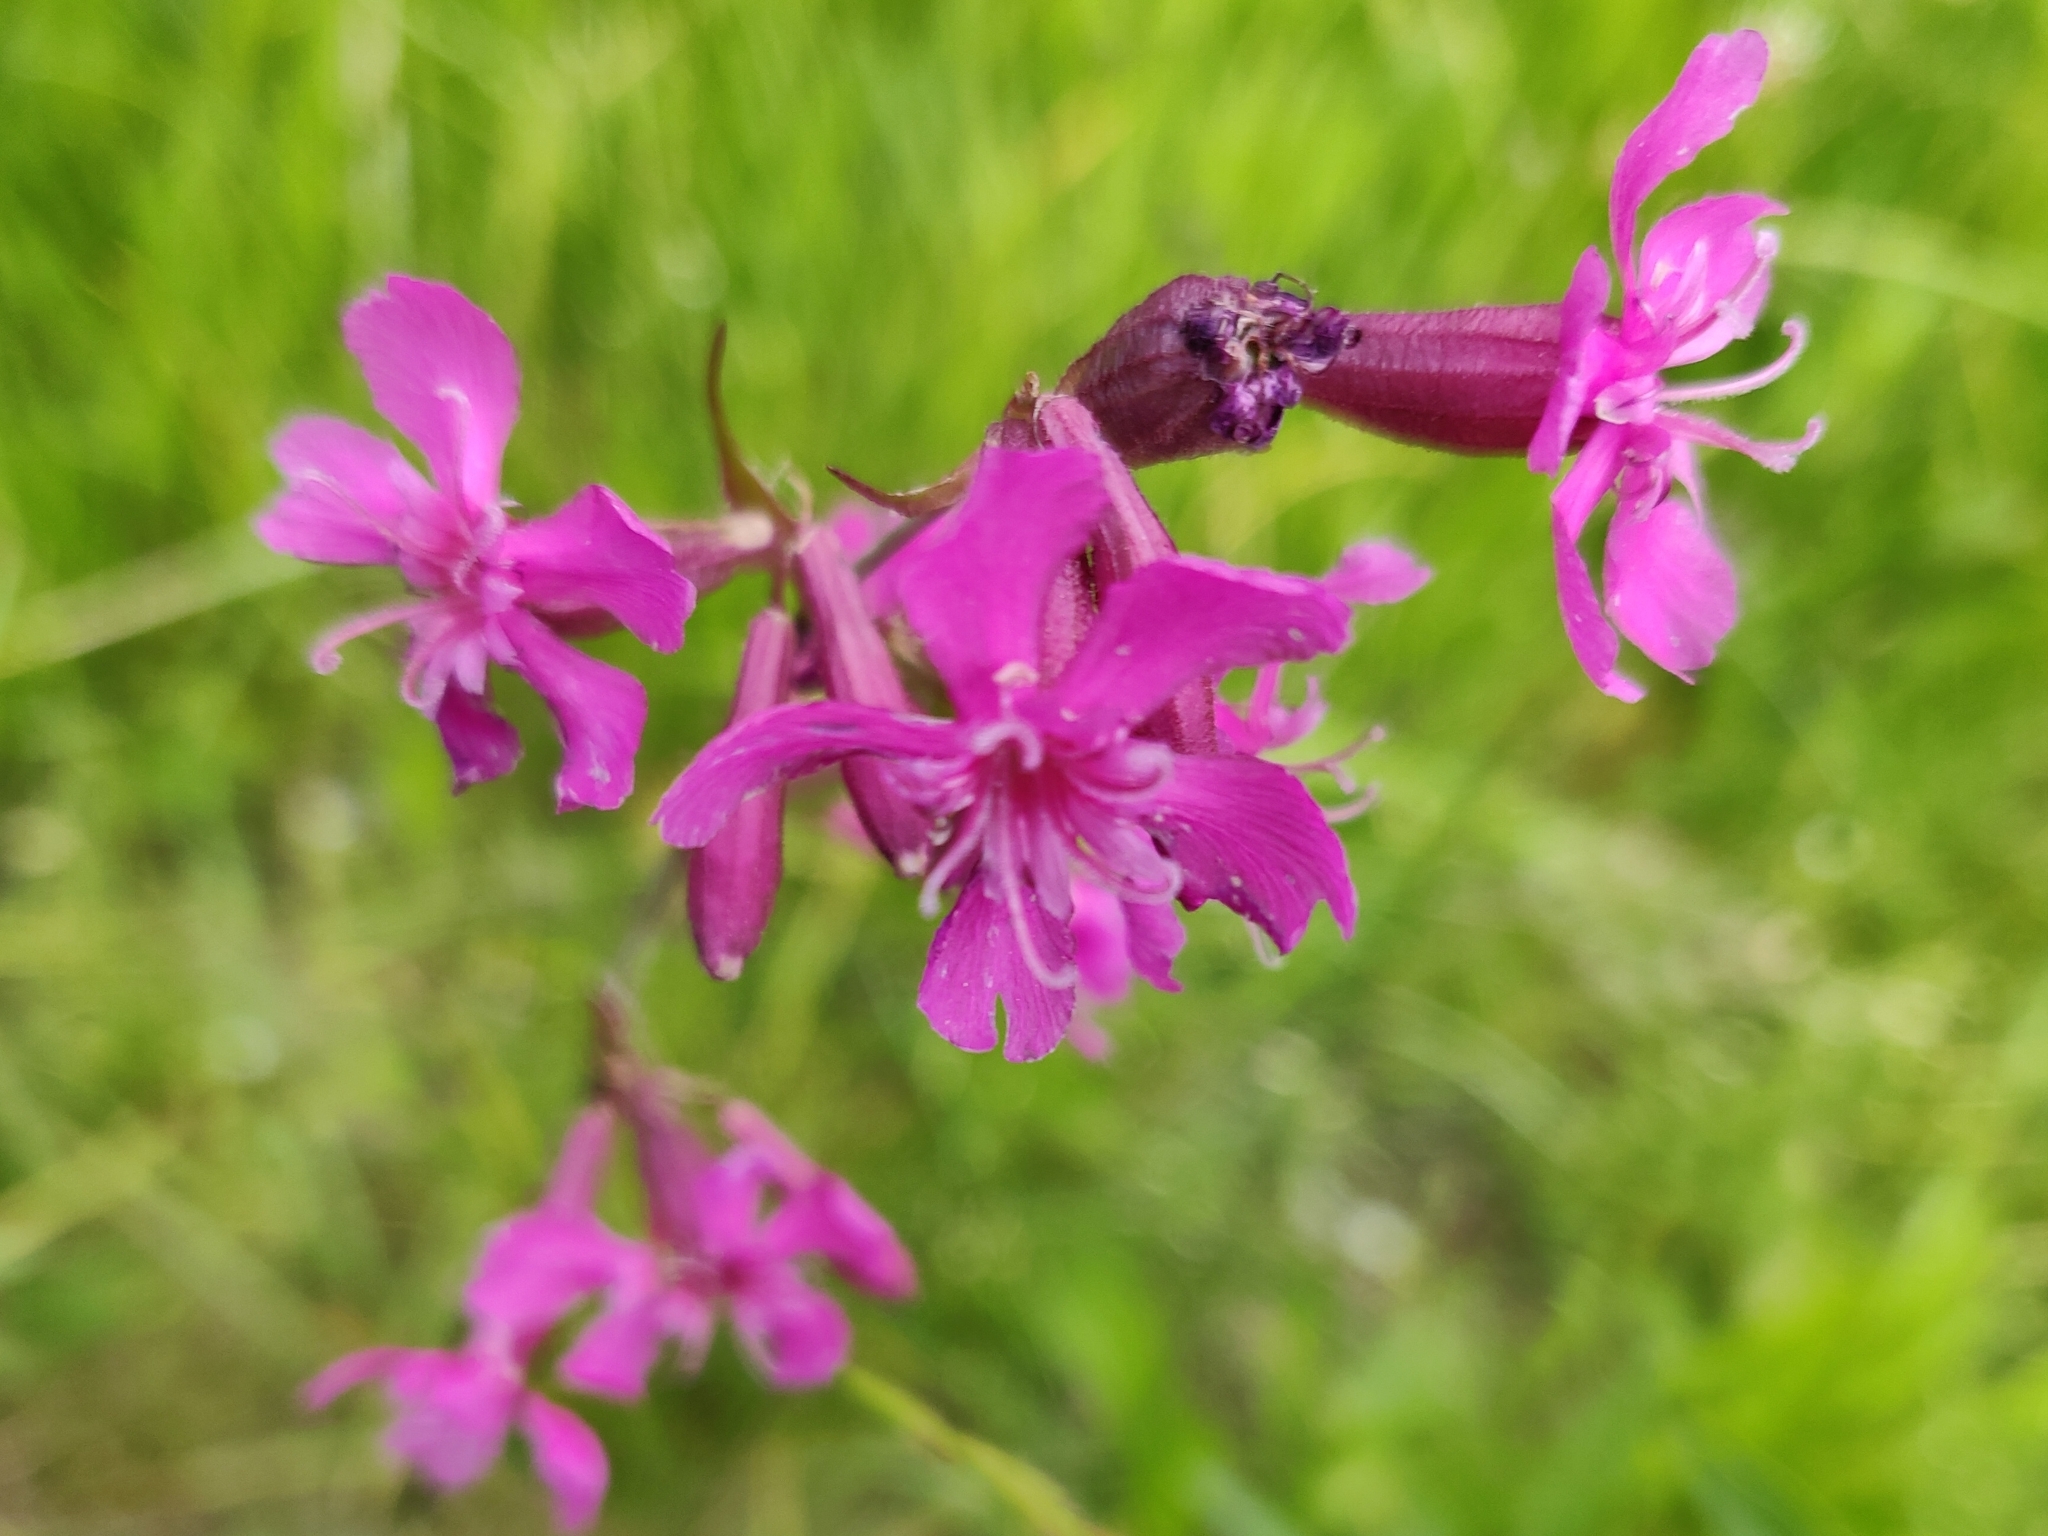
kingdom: Plantae
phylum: Tracheophyta
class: Magnoliopsida
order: Caryophyllales
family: Caryophyllaceae
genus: Viscaria
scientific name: Viscaria vulgaris
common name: Clammy campion
